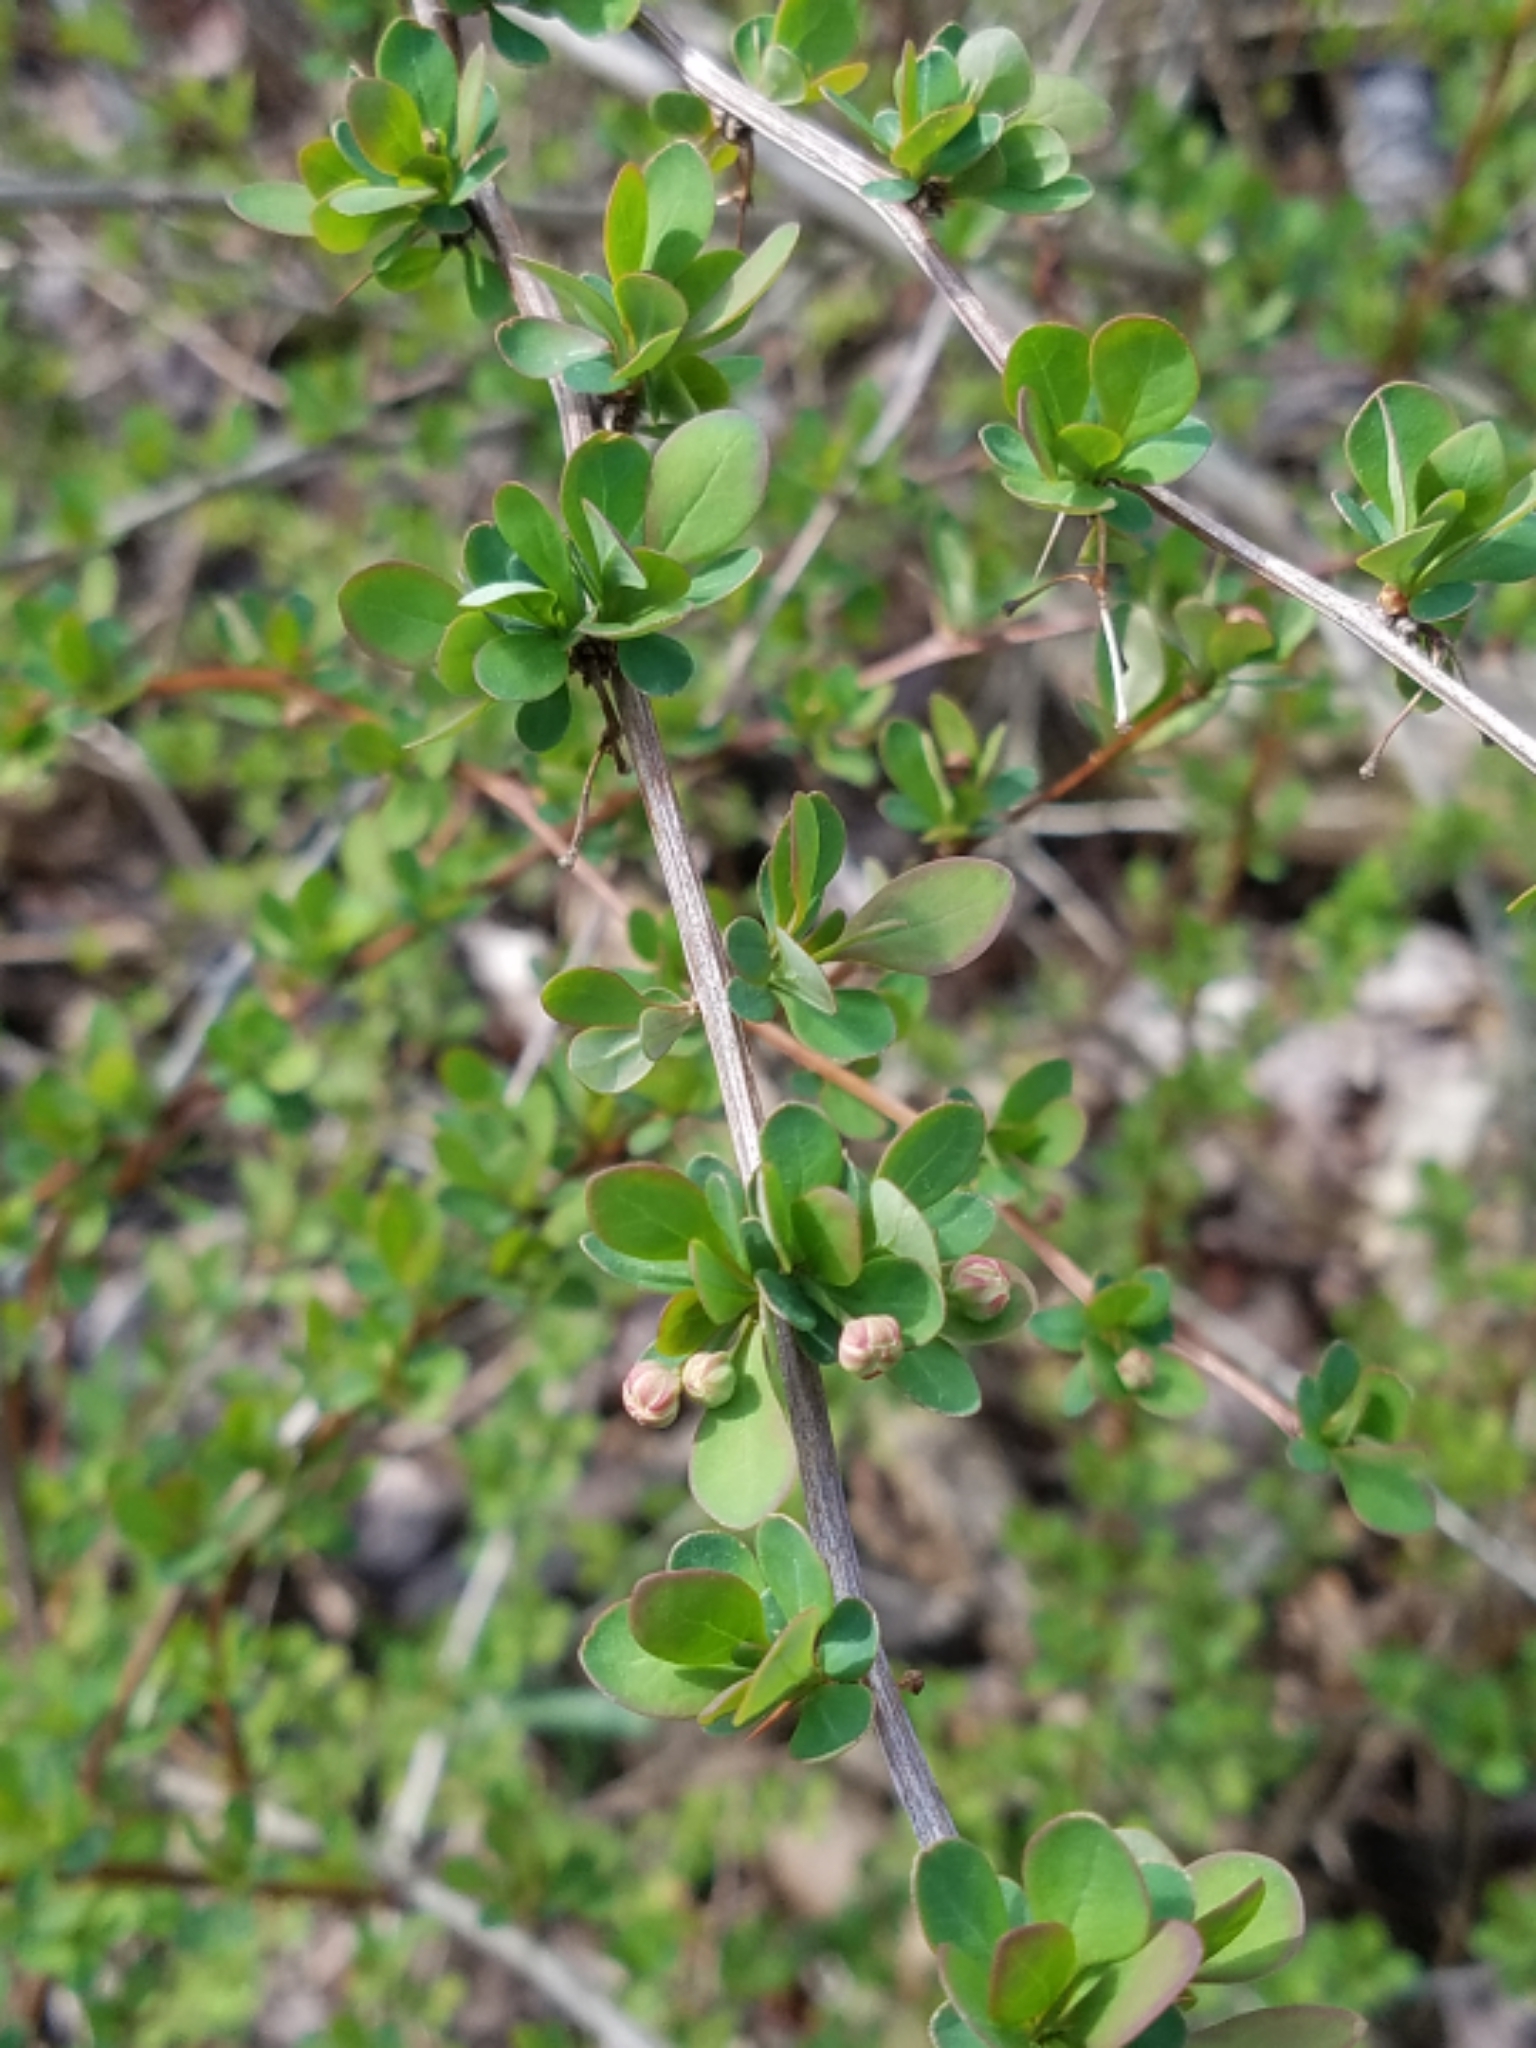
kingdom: Plantae
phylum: Tracheophyta
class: Magnoliopsida
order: Ranunculales
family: Berberidaceae
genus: Berberis
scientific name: Berberis thunbergii
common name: Japanese barberry
